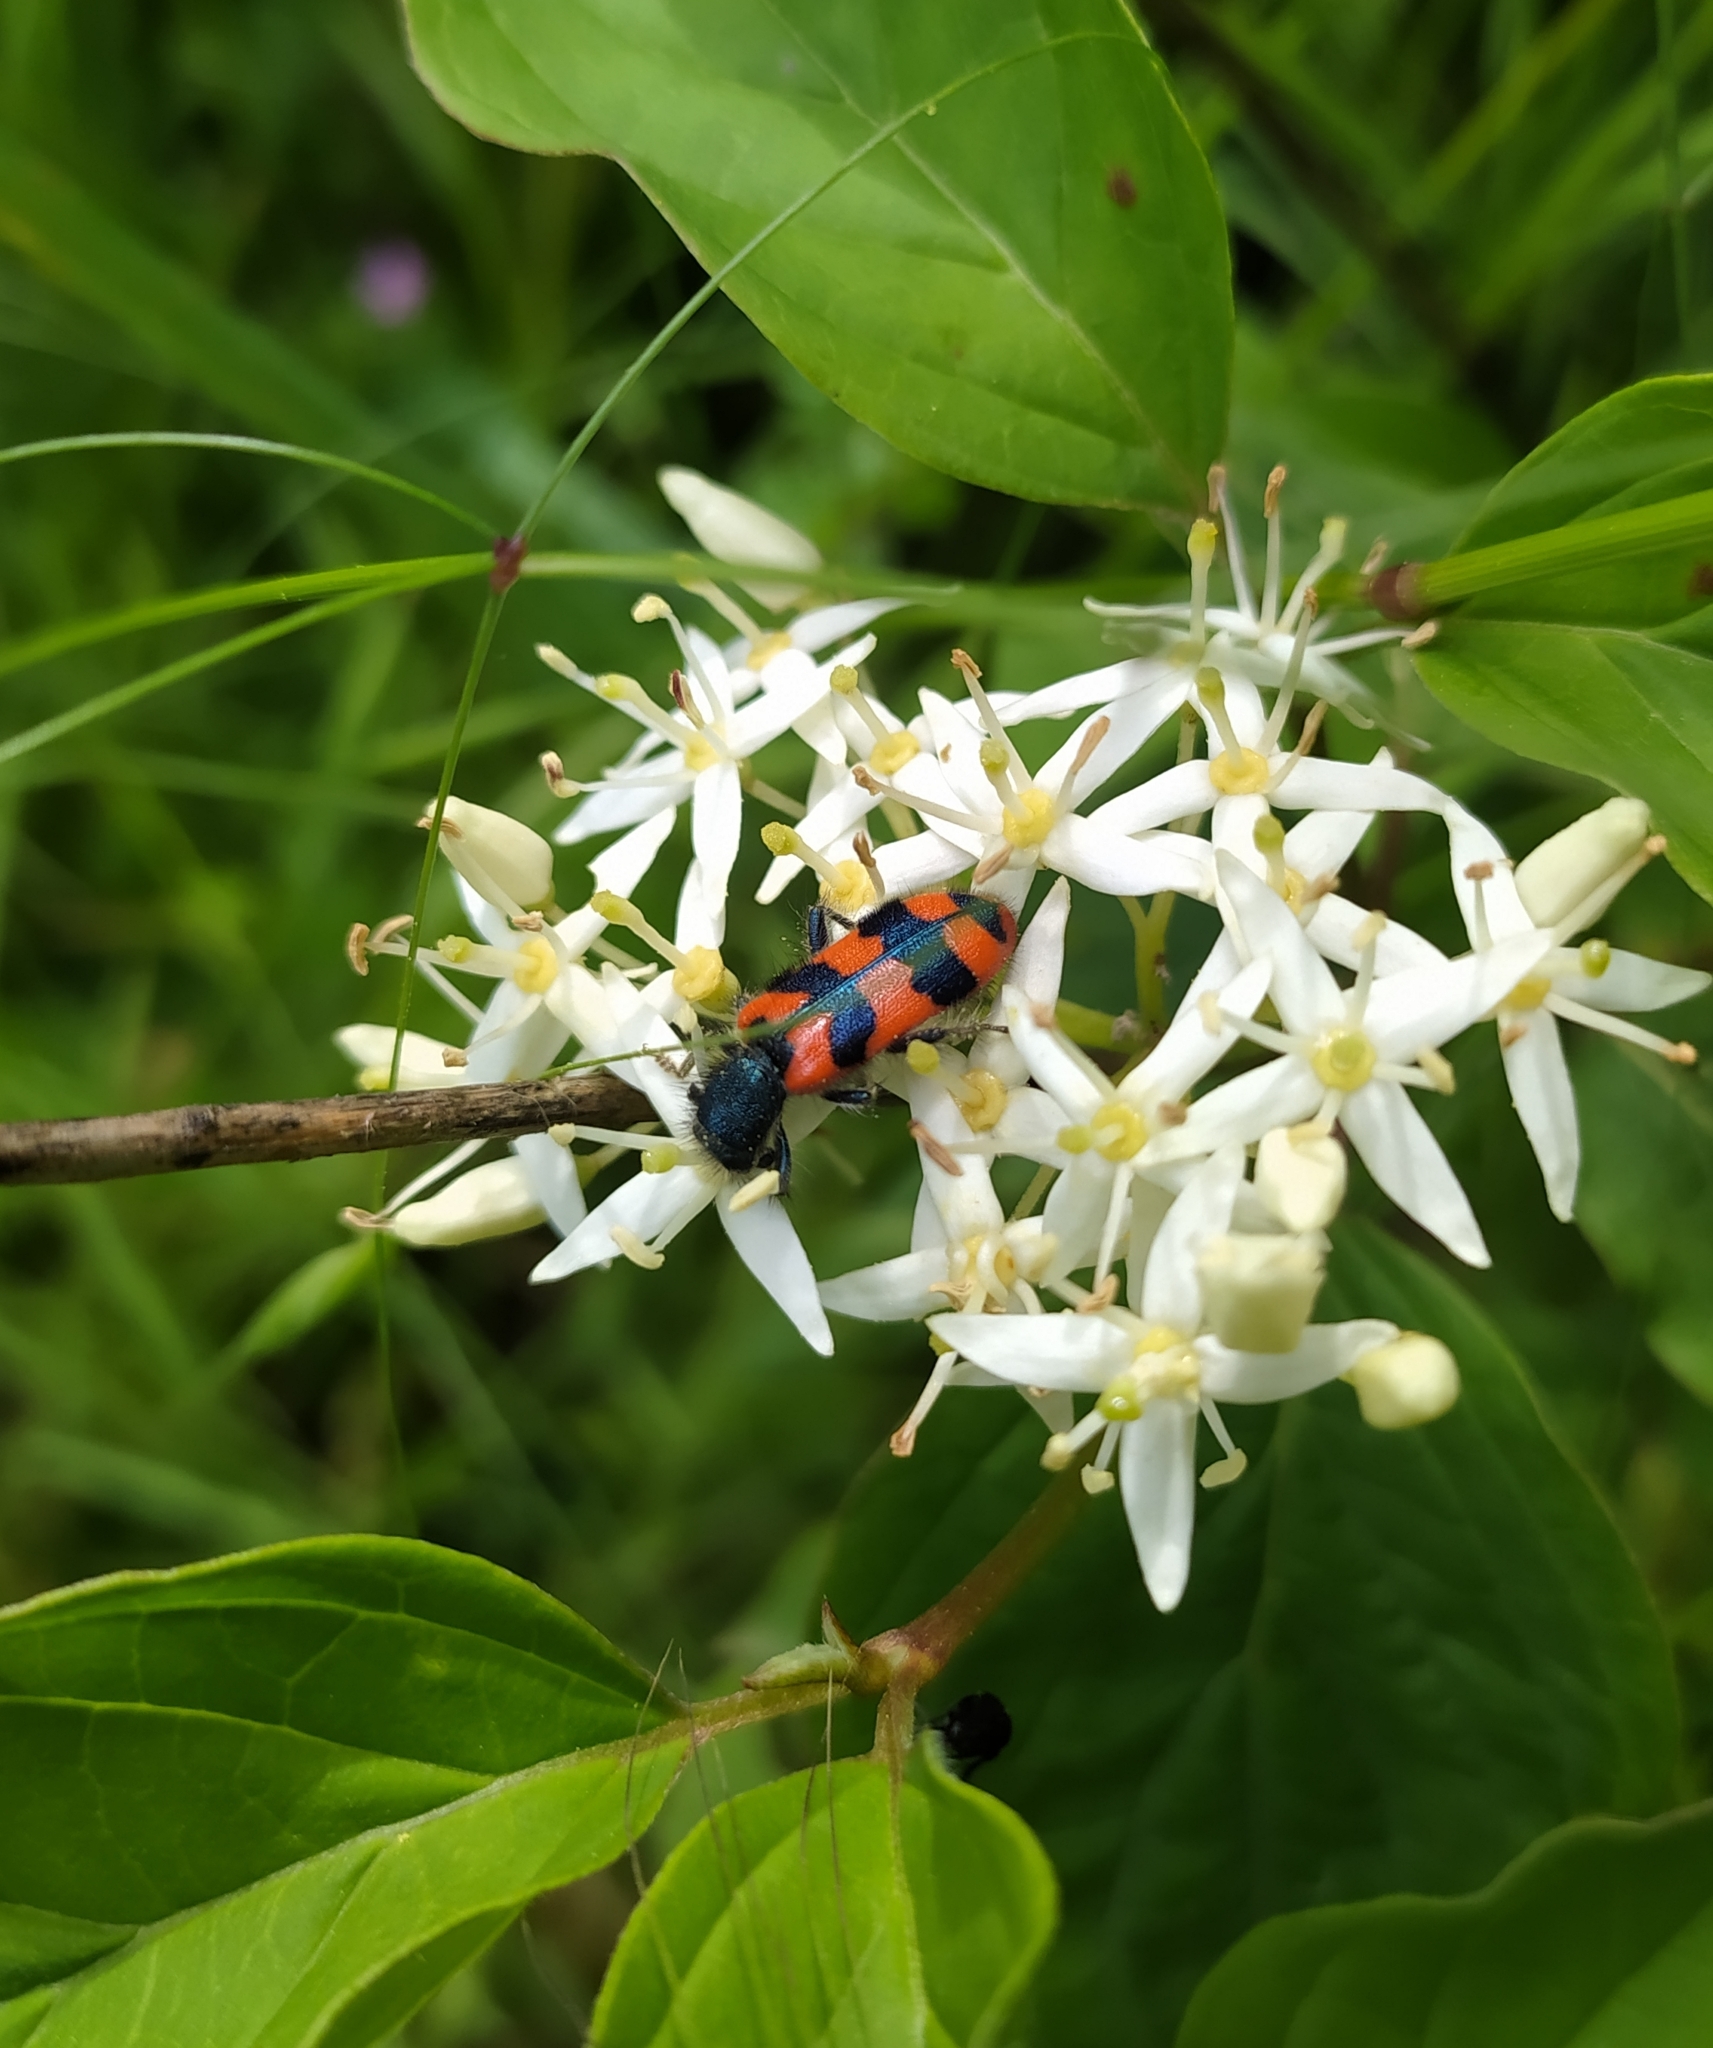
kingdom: Animalia
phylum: Arthropoda
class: Insecta
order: Coleoptera
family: Cleridae
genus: Trichodes
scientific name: Trichodes alvearius
